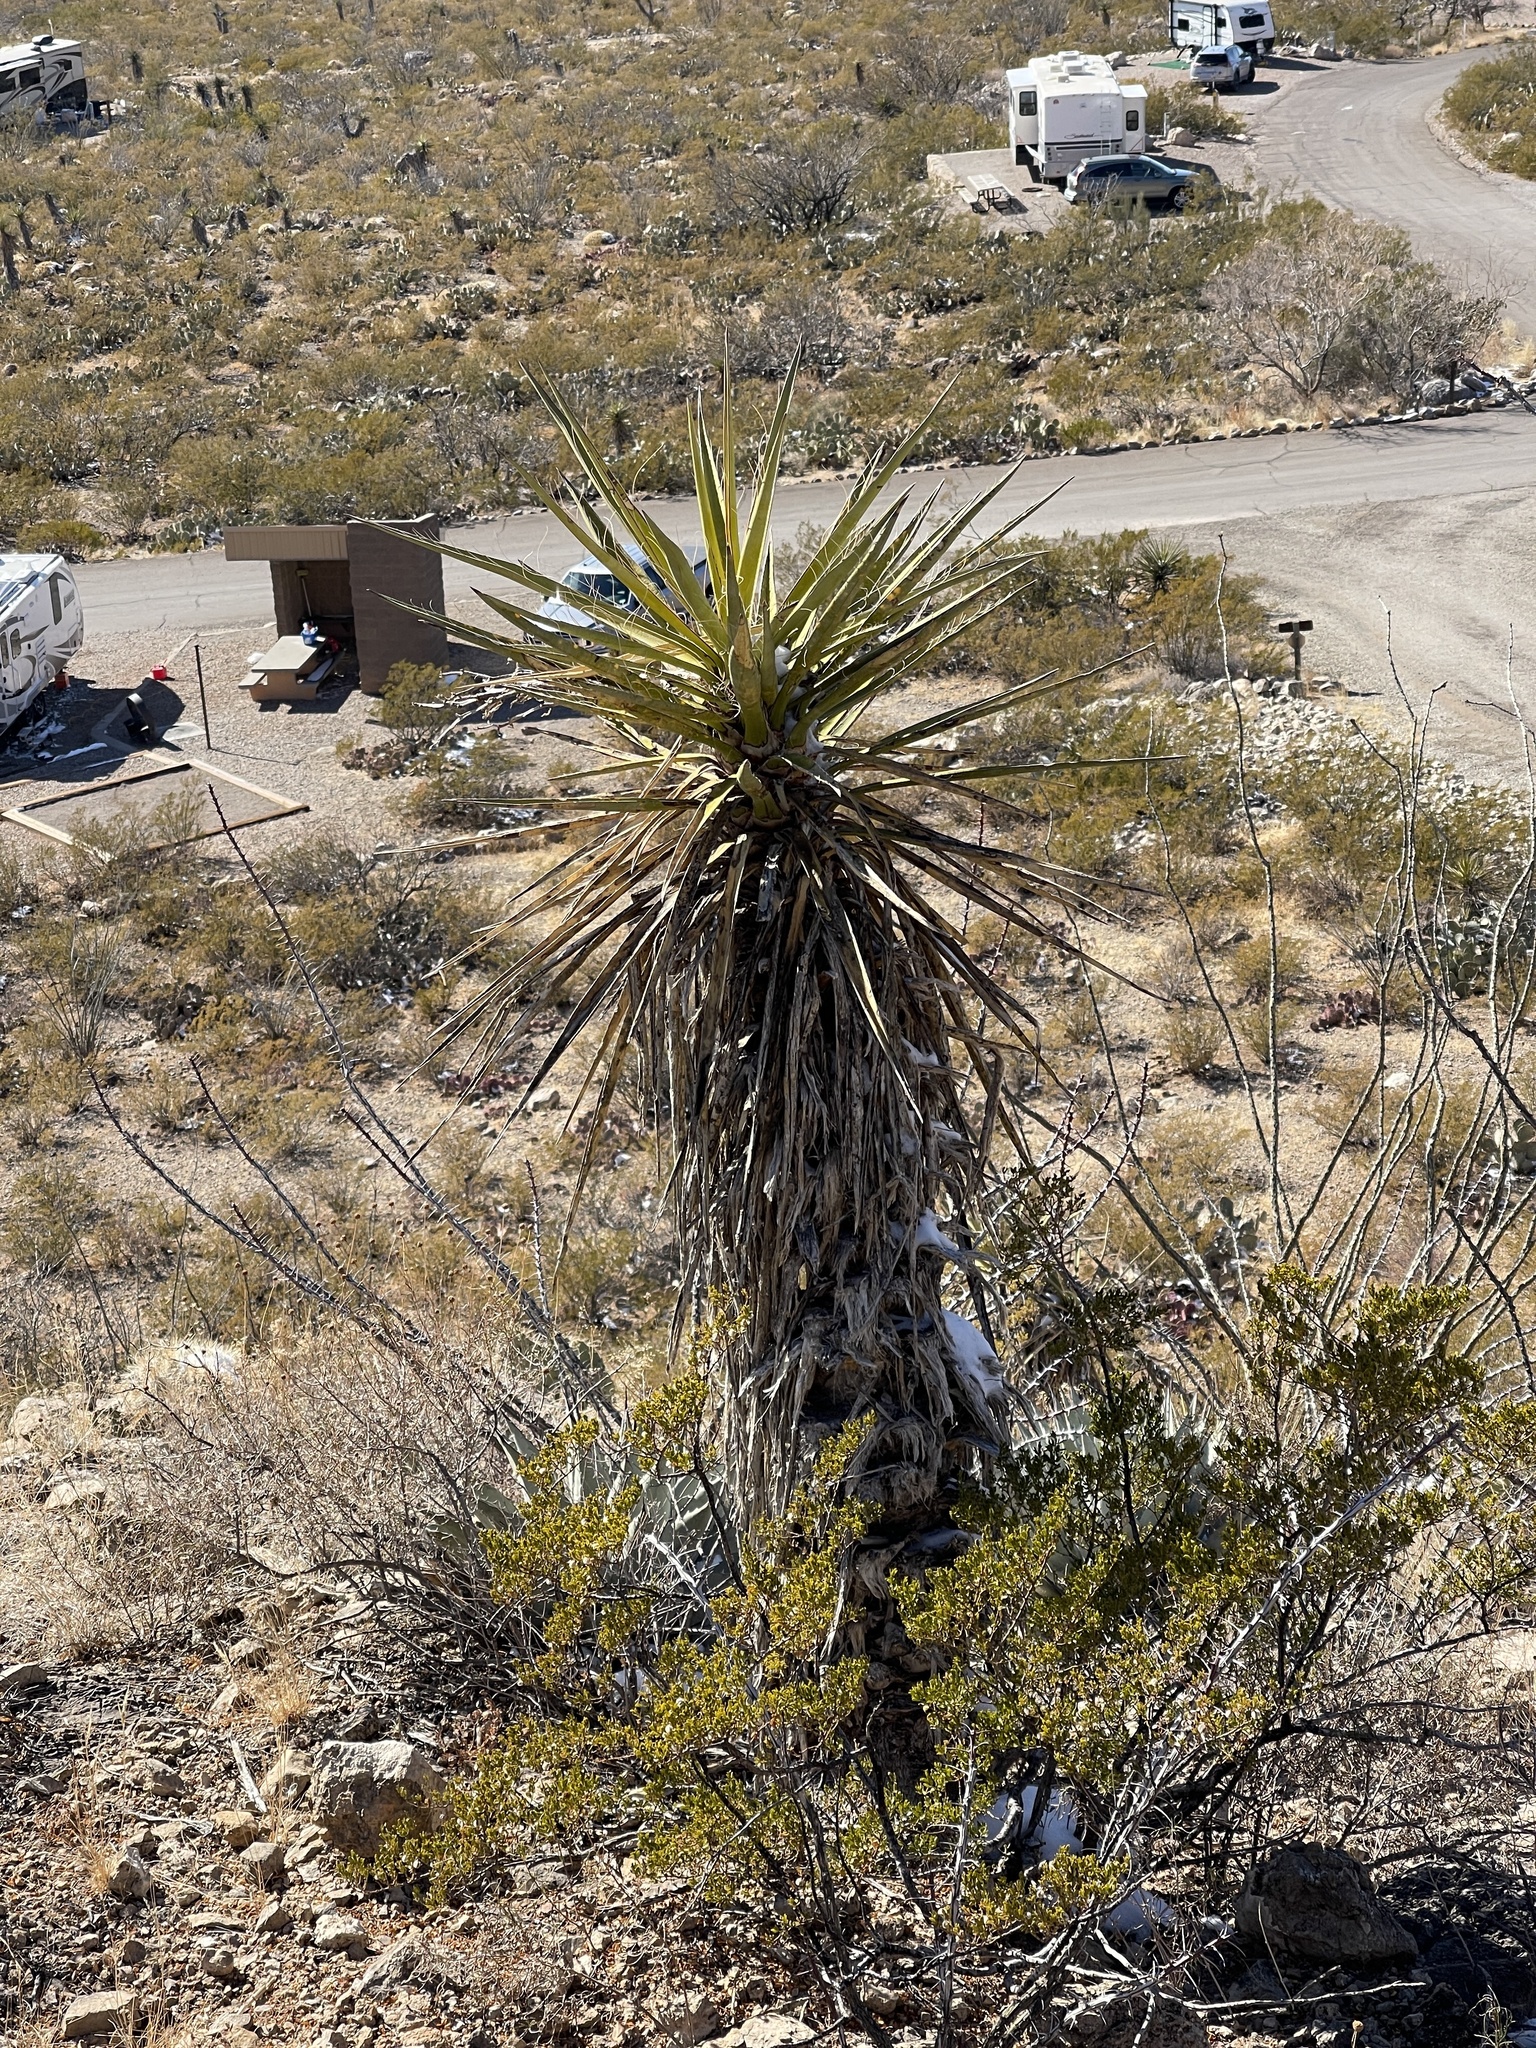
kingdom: Plantae
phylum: Tracheophyta
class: Liliopsida
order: Asparagales
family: Asparagaceae
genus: Yucca
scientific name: Yucca treculiana
